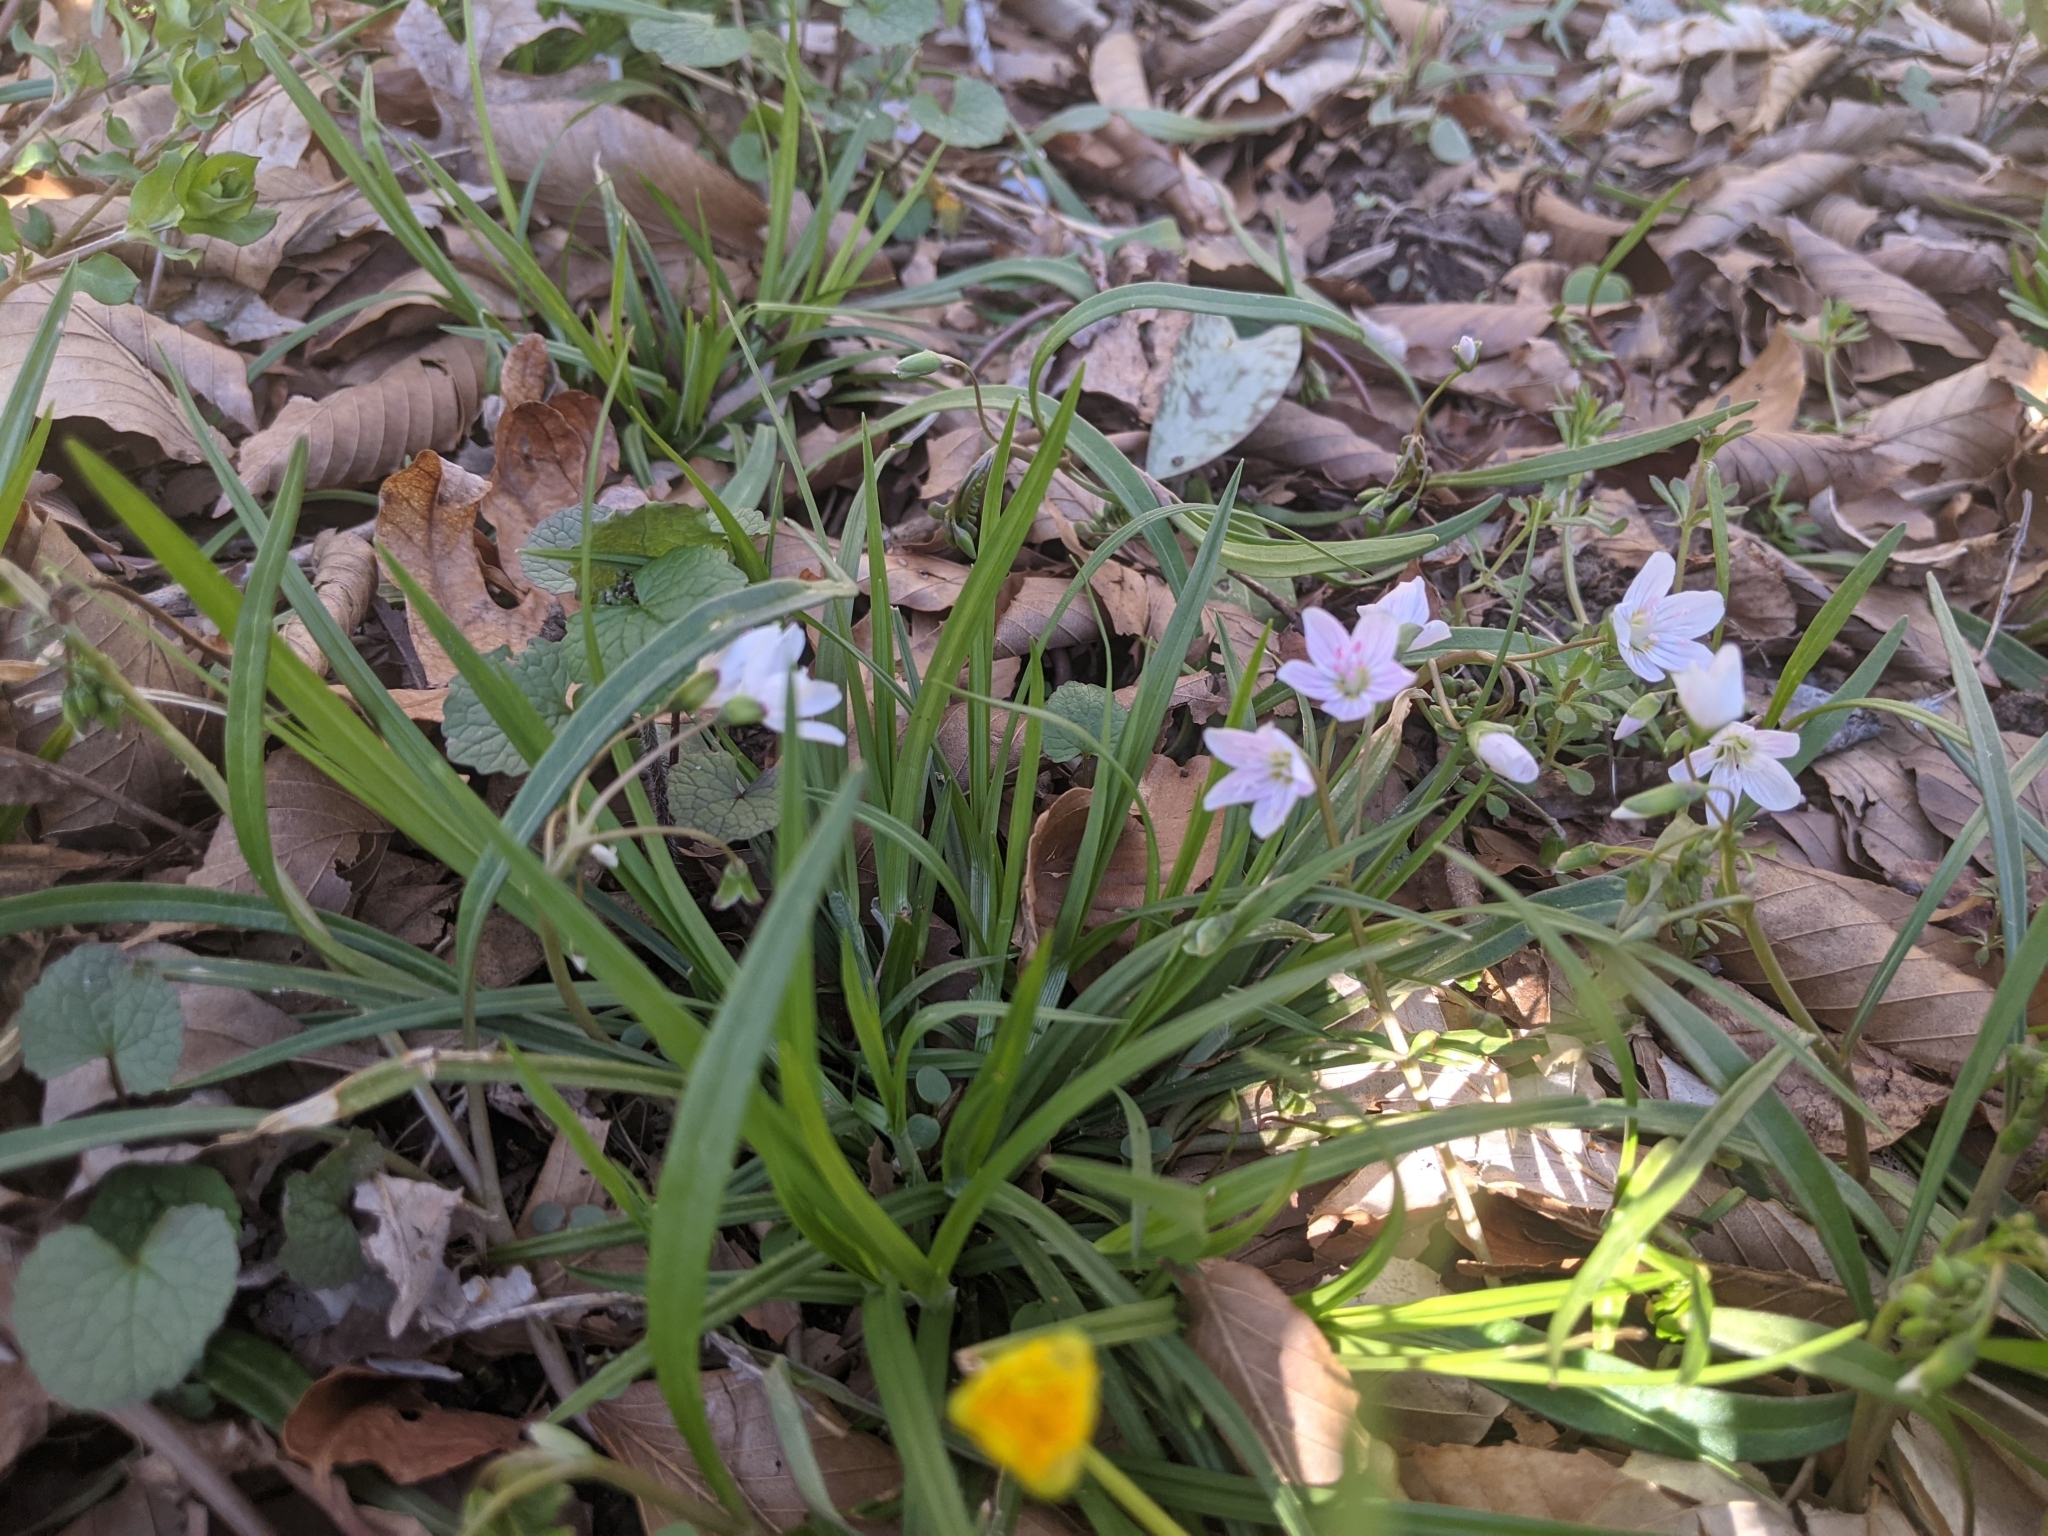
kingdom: Plantae
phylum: Tracheophyta
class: Magnoliopsida
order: Caryophyllales
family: Montiaceae
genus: Claytonia
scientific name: Claytonia virginica
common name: Virginia springbeauty
